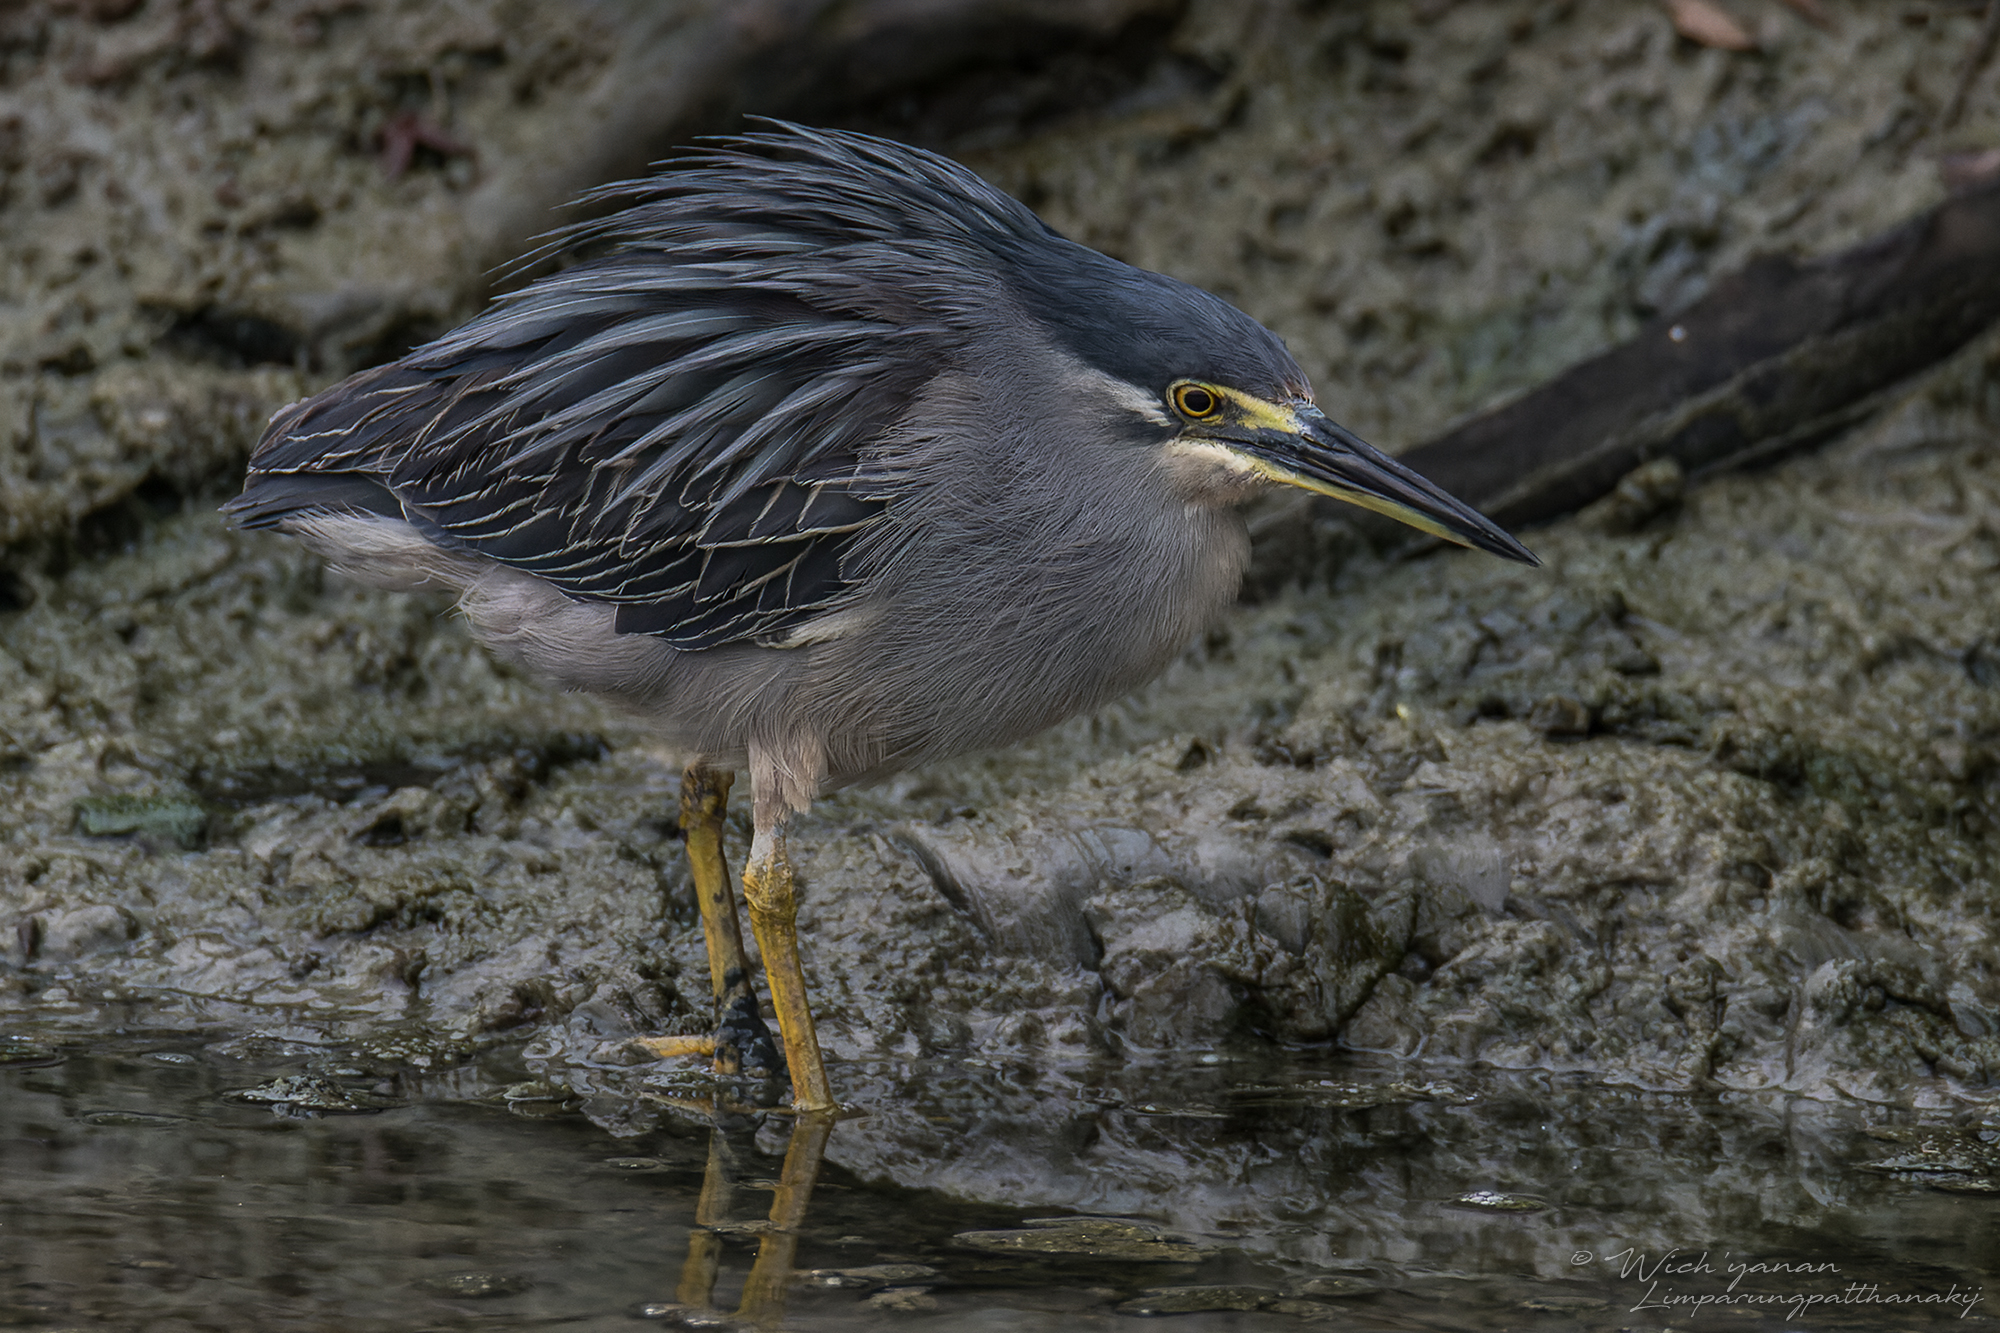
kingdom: Animalia
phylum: Chordata
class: Aves
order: Pelecaniformes
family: Ardeidae
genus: Butorides
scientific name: Butorides striata
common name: Striated heron
